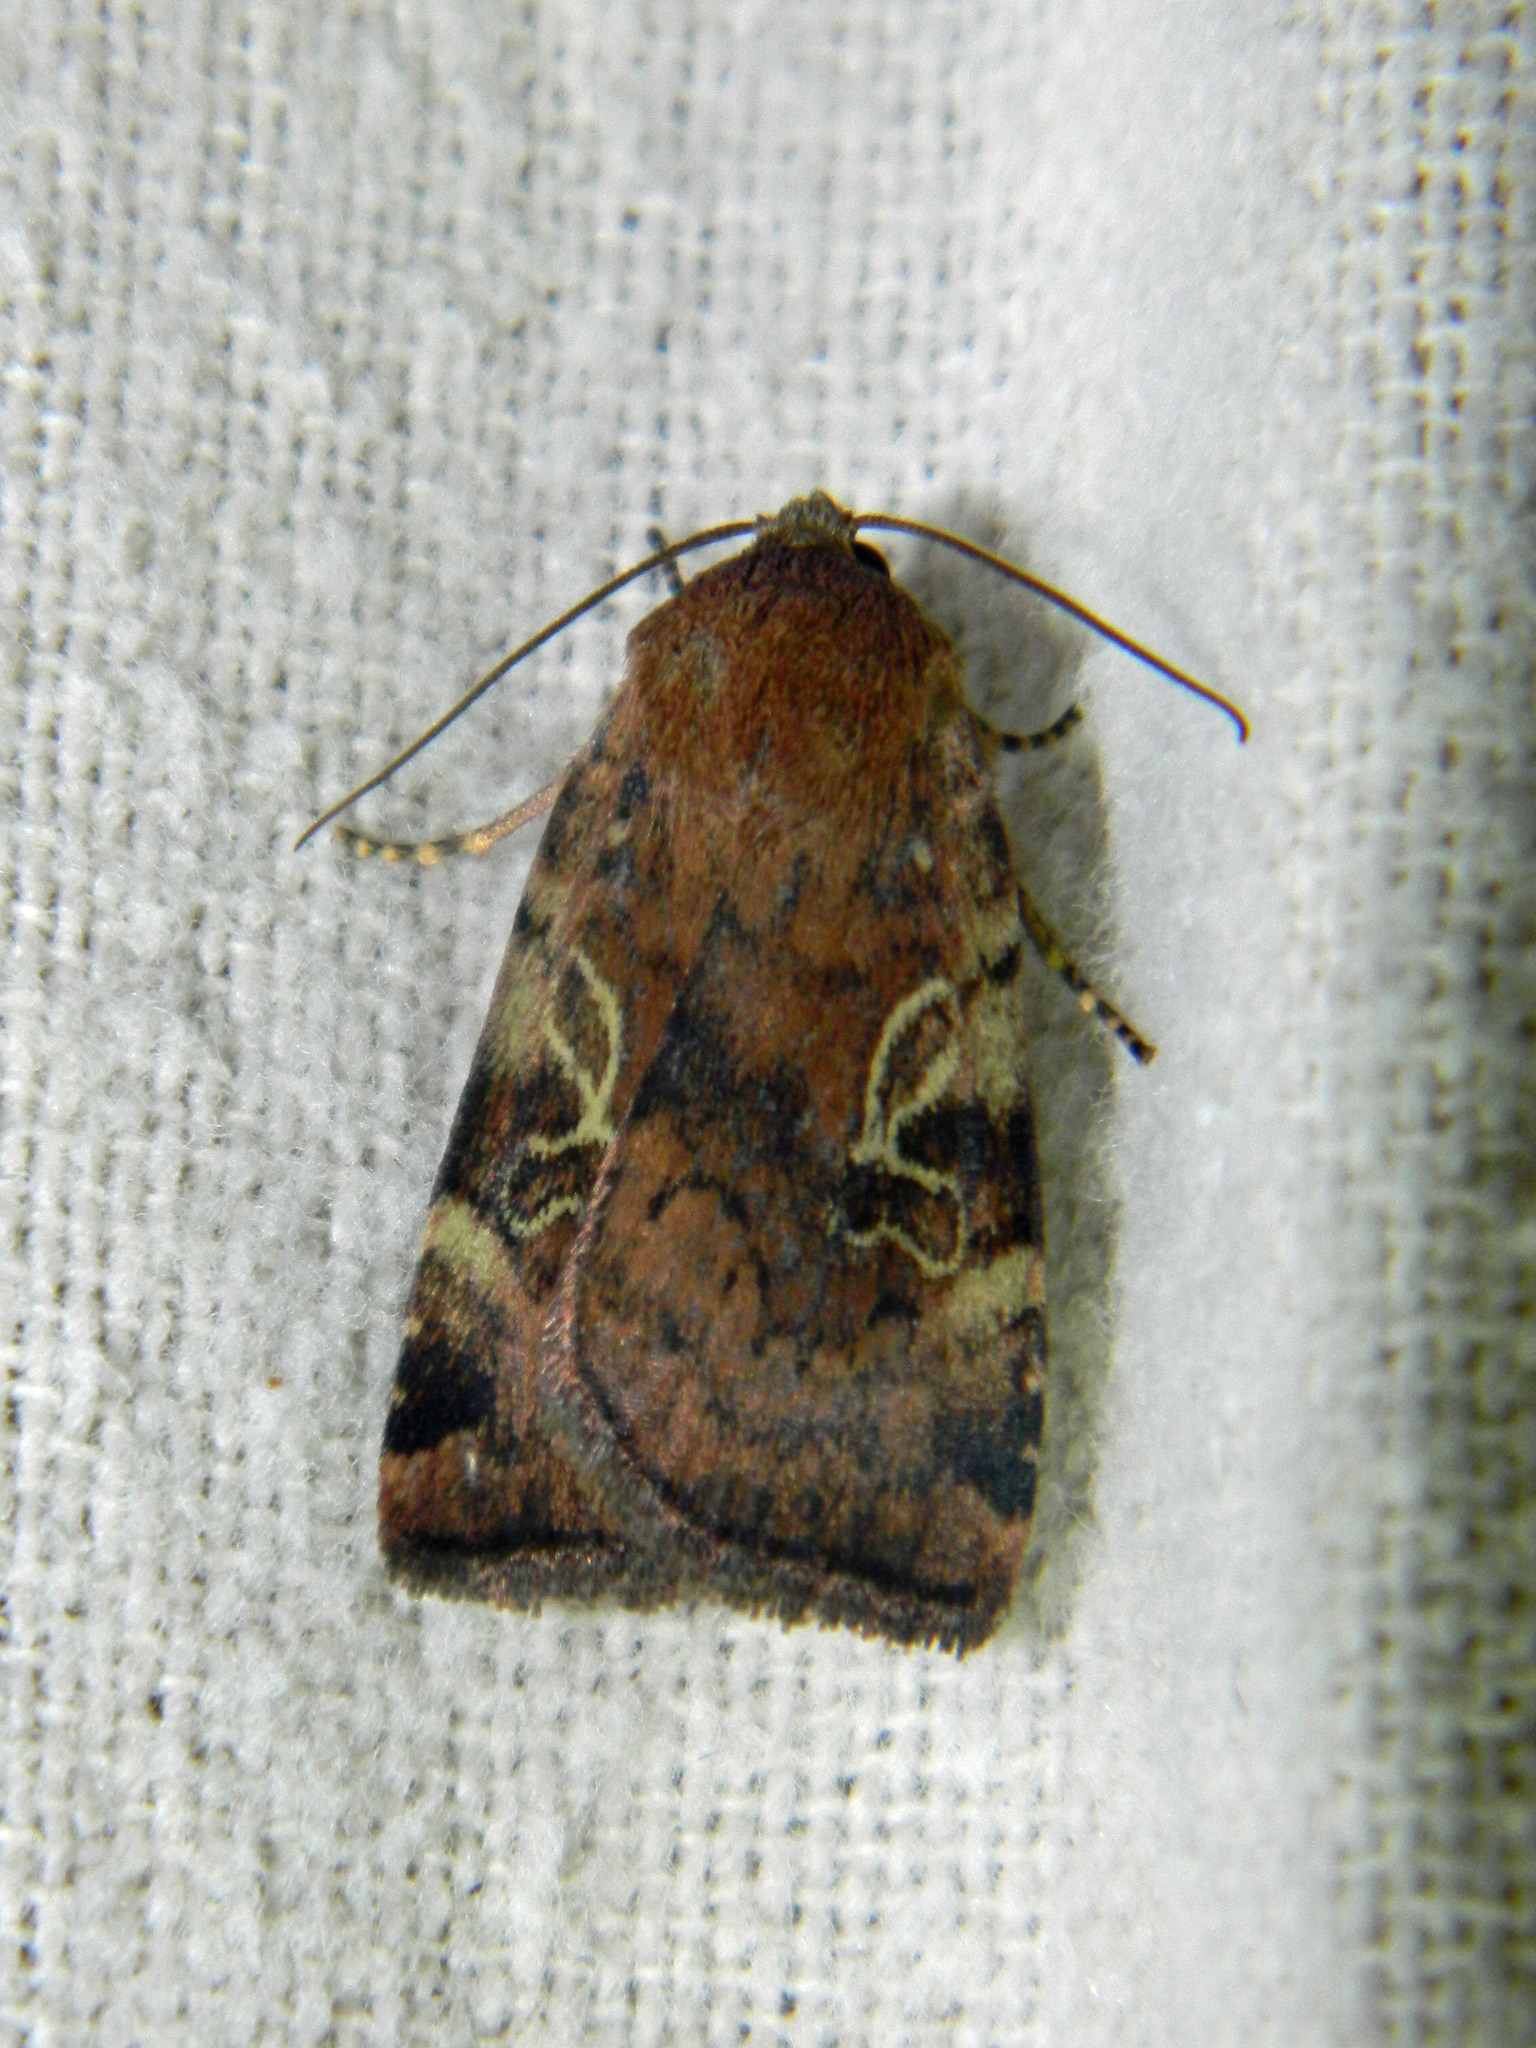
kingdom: Animalia
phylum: Arthropoda
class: Insecta
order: Lepidoptera
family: Noctuidae
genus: Cryptocala
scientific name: Cryptocala acadiensis
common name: Catocaline dart
